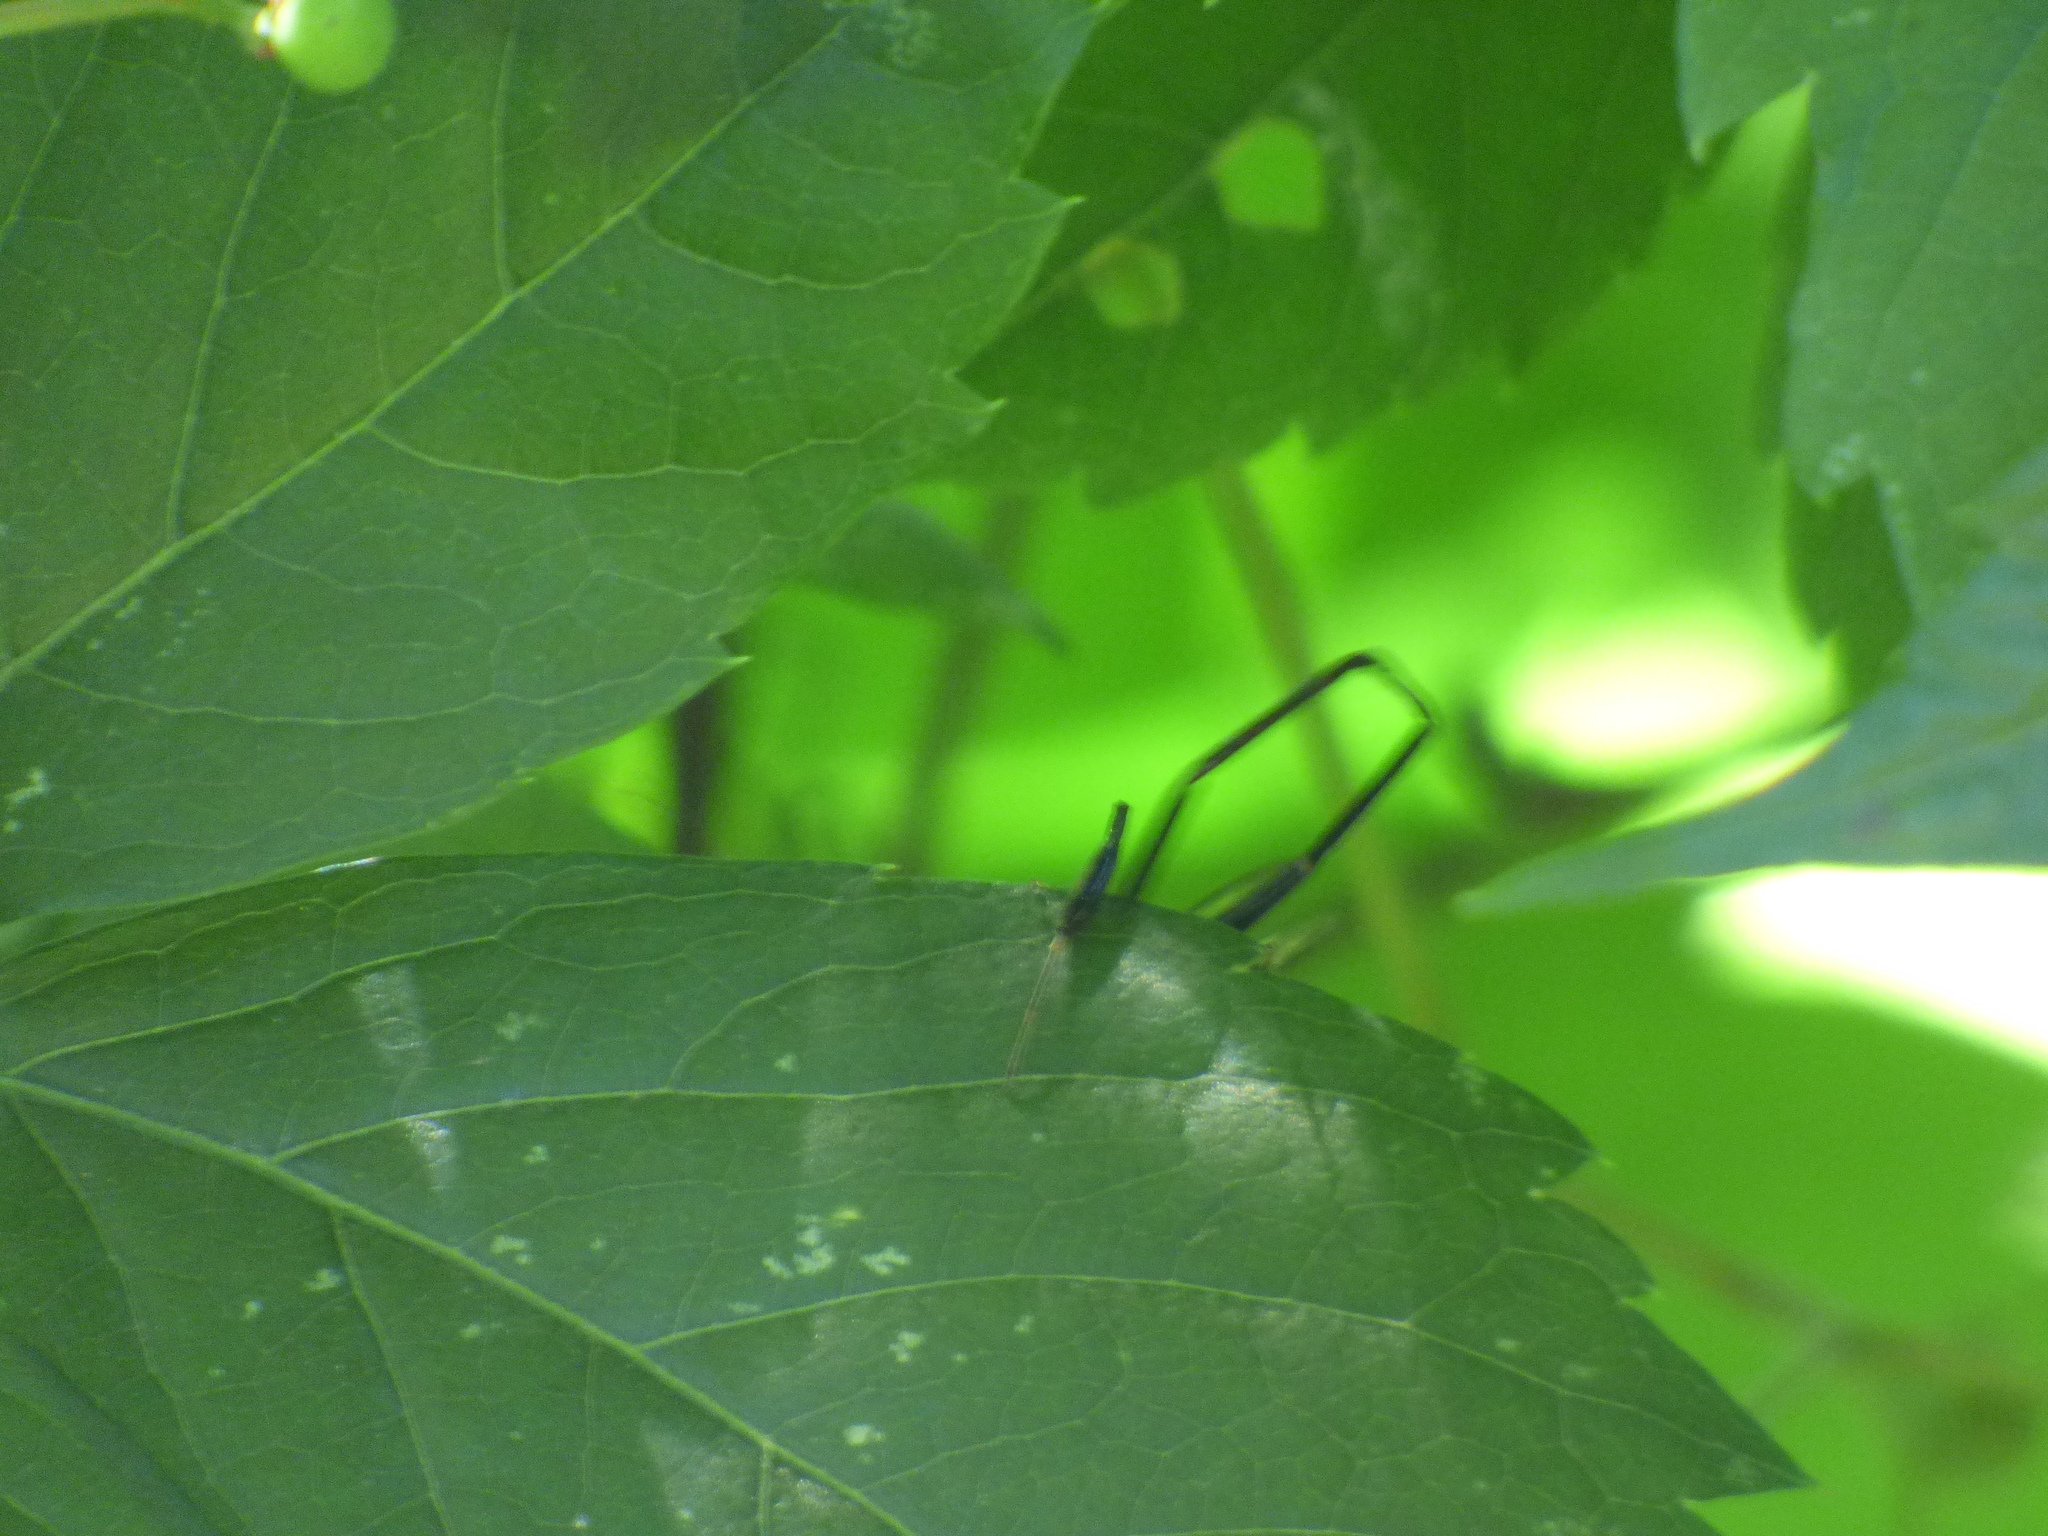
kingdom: Animalia
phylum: Arthropoda
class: Insecta
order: Hymenoptera
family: Pelecinidae
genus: Pelecinus
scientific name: Pelecinus polyturator
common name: American pelecinid wasp
